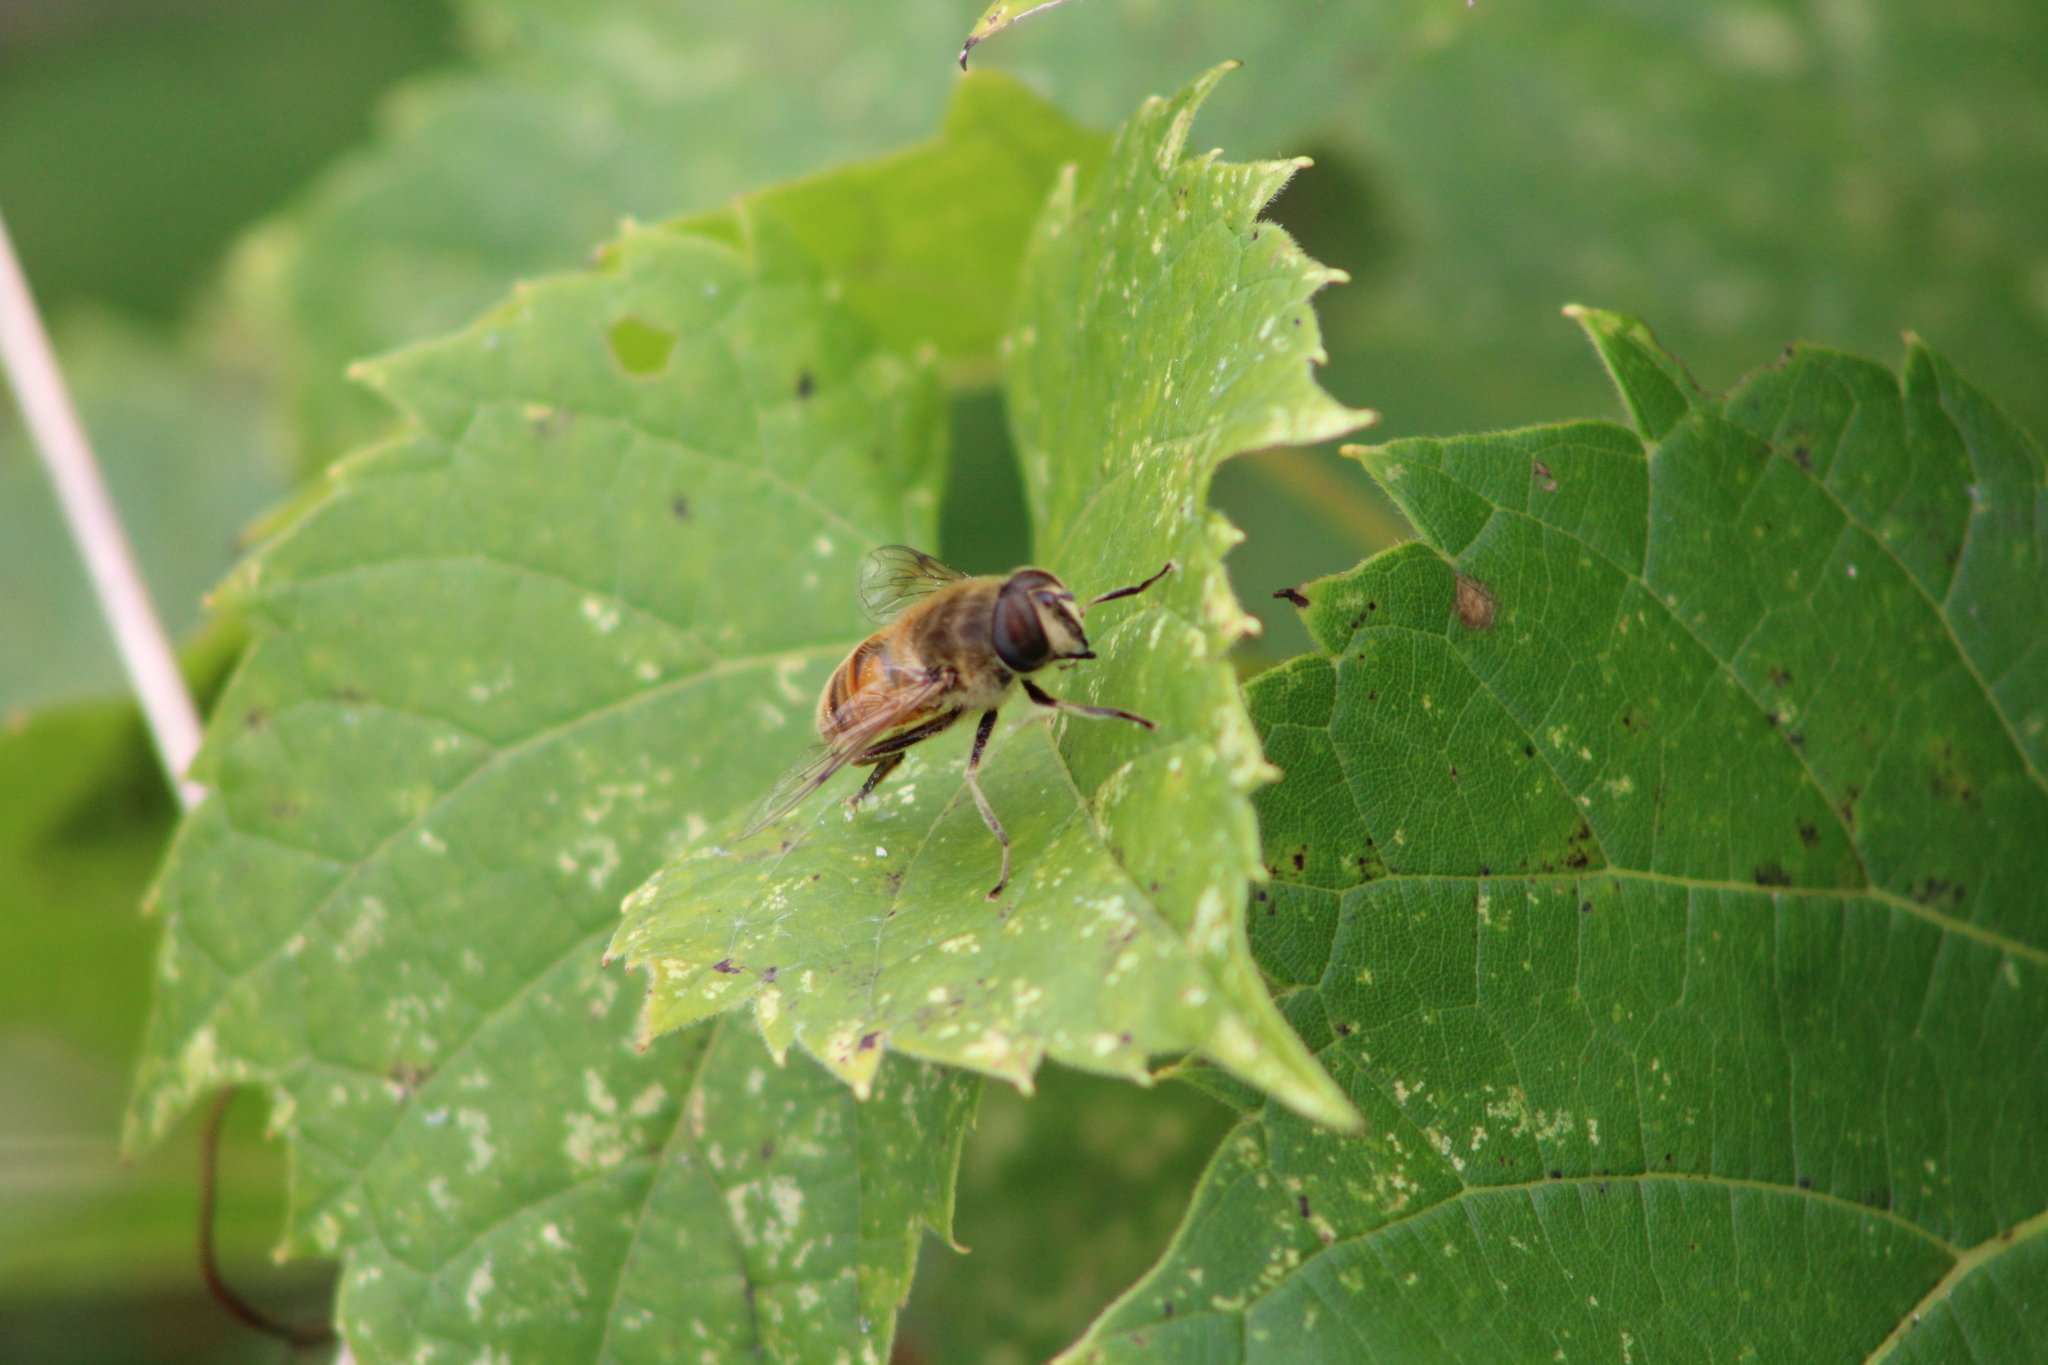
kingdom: Animalia
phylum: Arthropoda
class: Insecta
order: Diptera
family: Syrphidae
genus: Eristalis
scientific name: Eristalis tenax
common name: Drone fly
